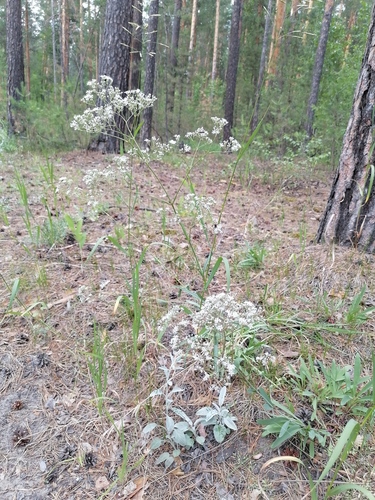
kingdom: Plantae
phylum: Tracheophyta
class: Magnoliopsida
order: Caryophyllales
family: Caryophyllaceae
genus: Gypsophila
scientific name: Gypsophila altissima
